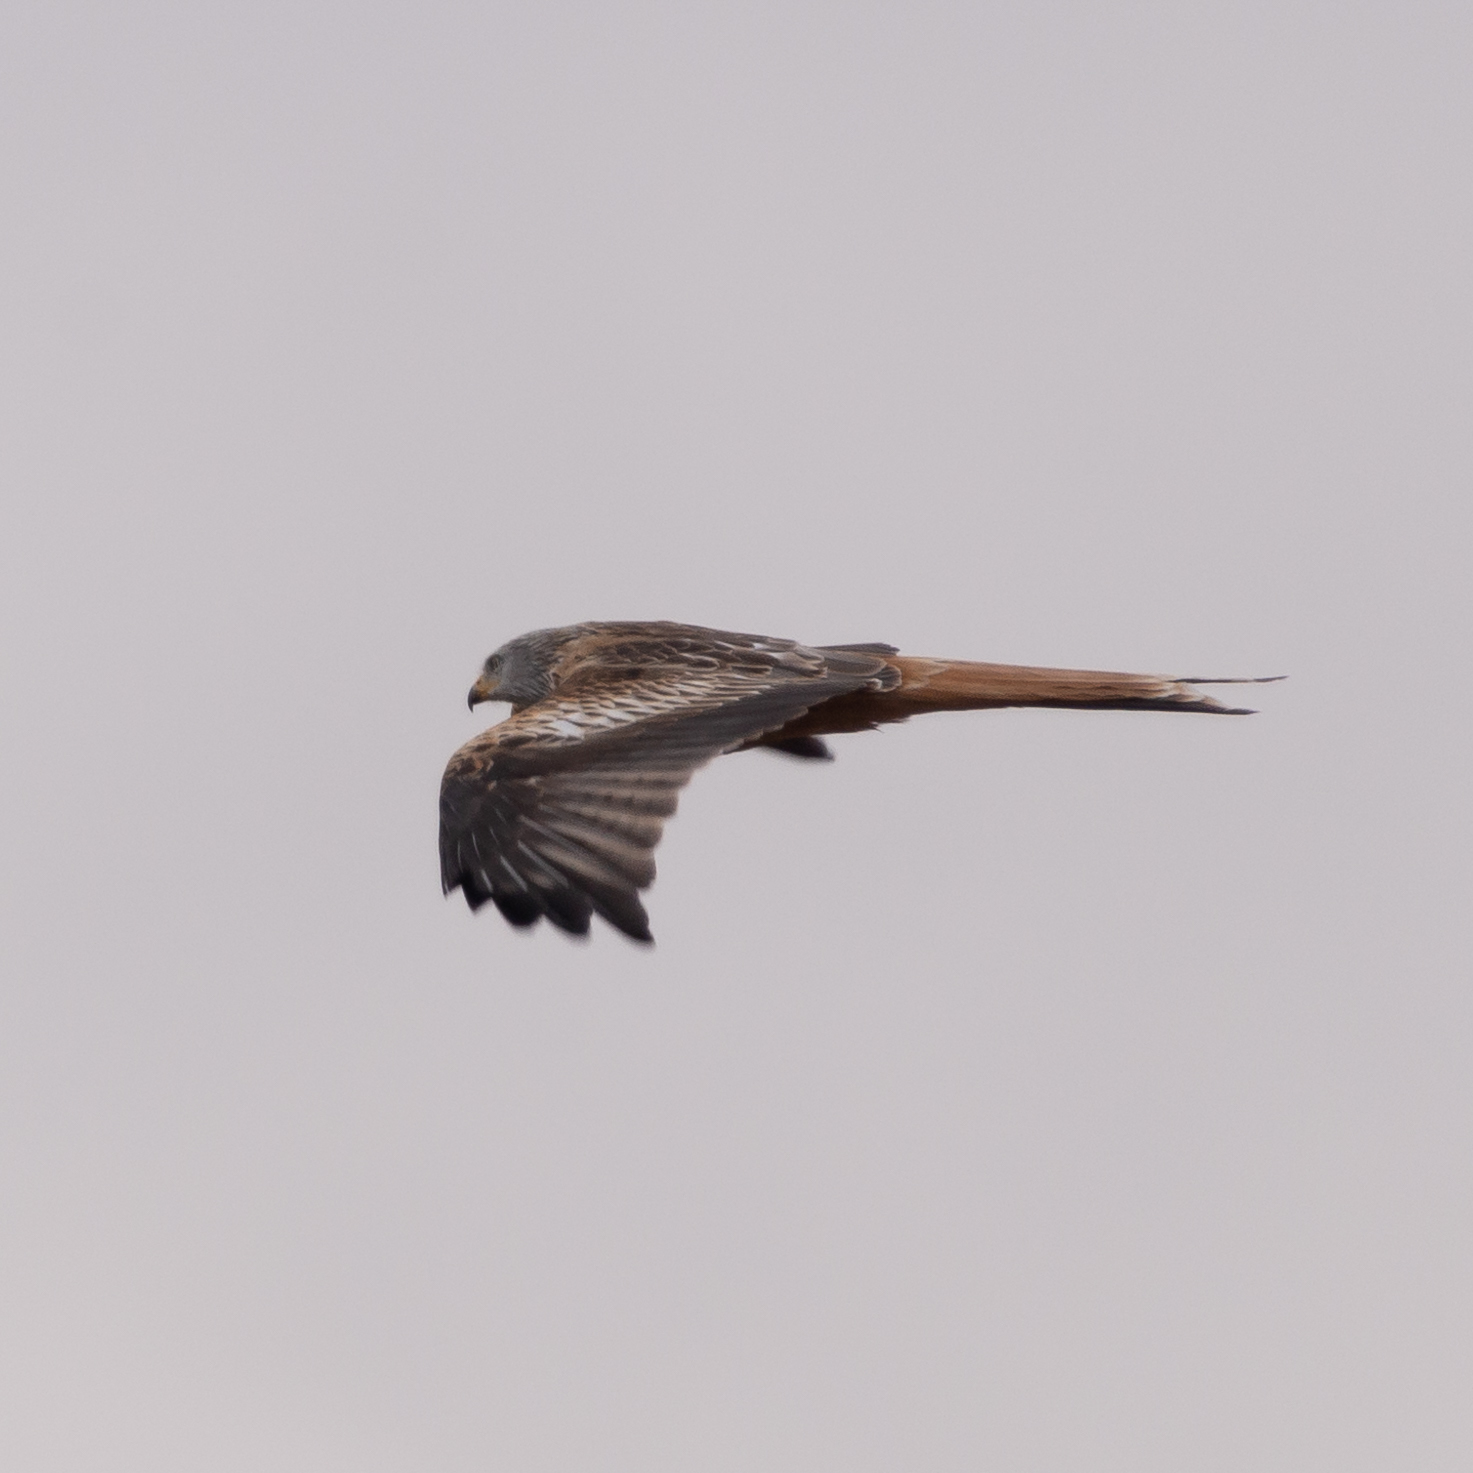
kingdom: Animalia
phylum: Chordata
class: Aves
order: Accipitriformes
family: Accipitridae
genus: Milvus
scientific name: Milvus milvus
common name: Red kite
